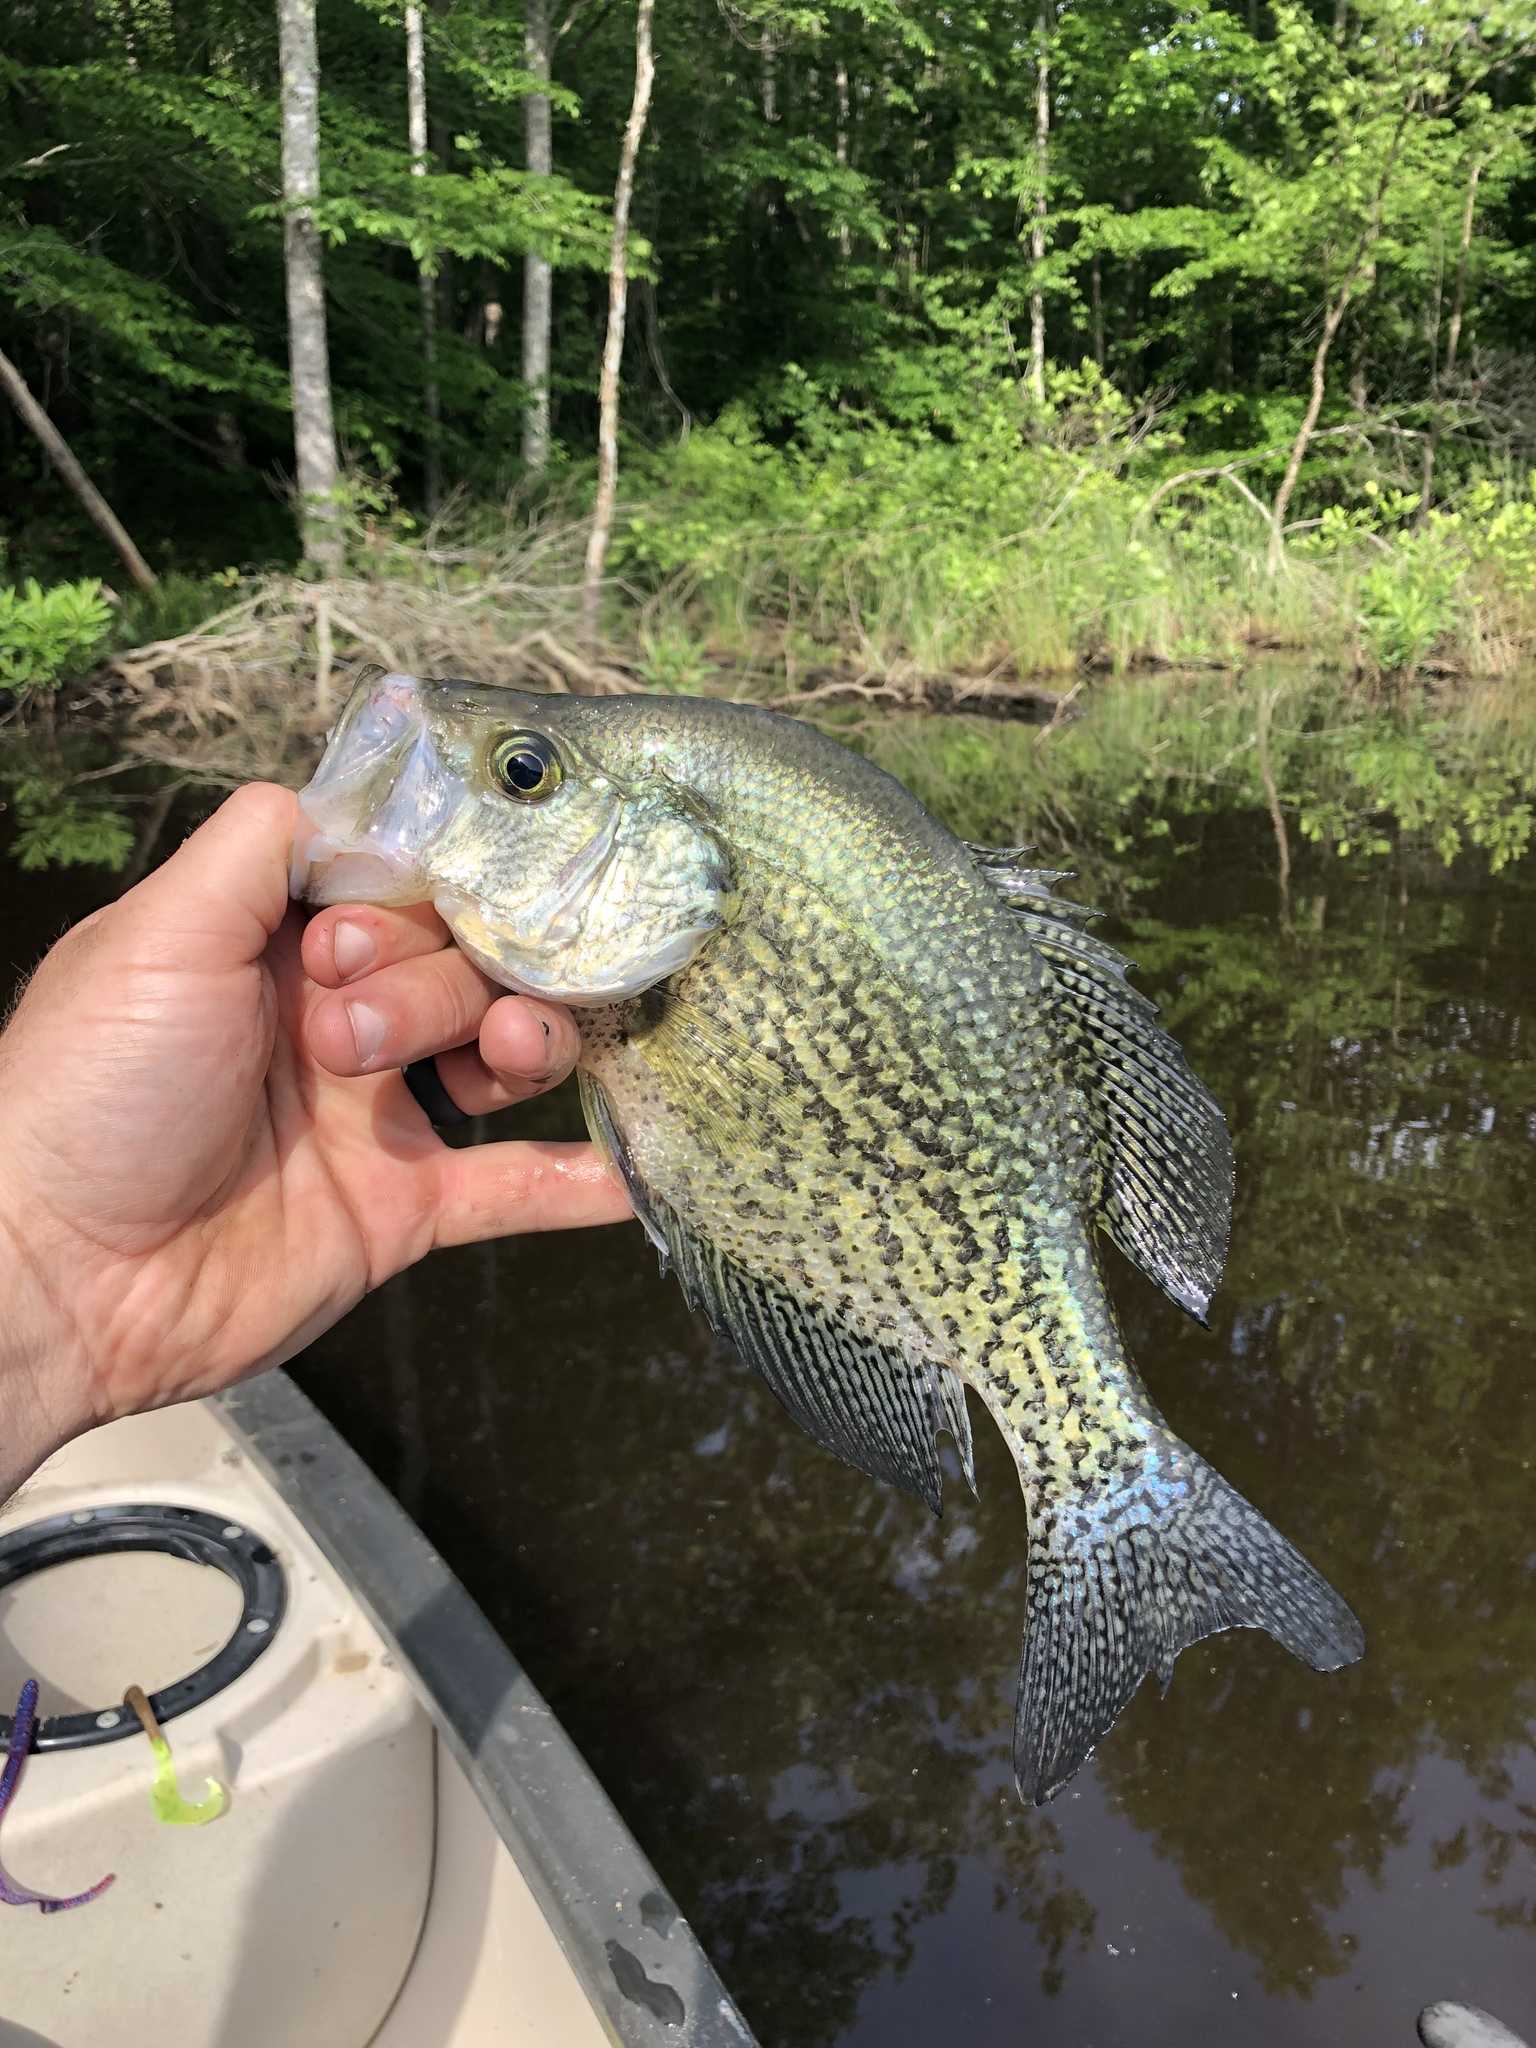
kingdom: Animalia
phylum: Chordata
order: Perciformes
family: Centrarchidae
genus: Pomoxis
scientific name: Pomoxis nigromaculatus
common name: Black crappie
